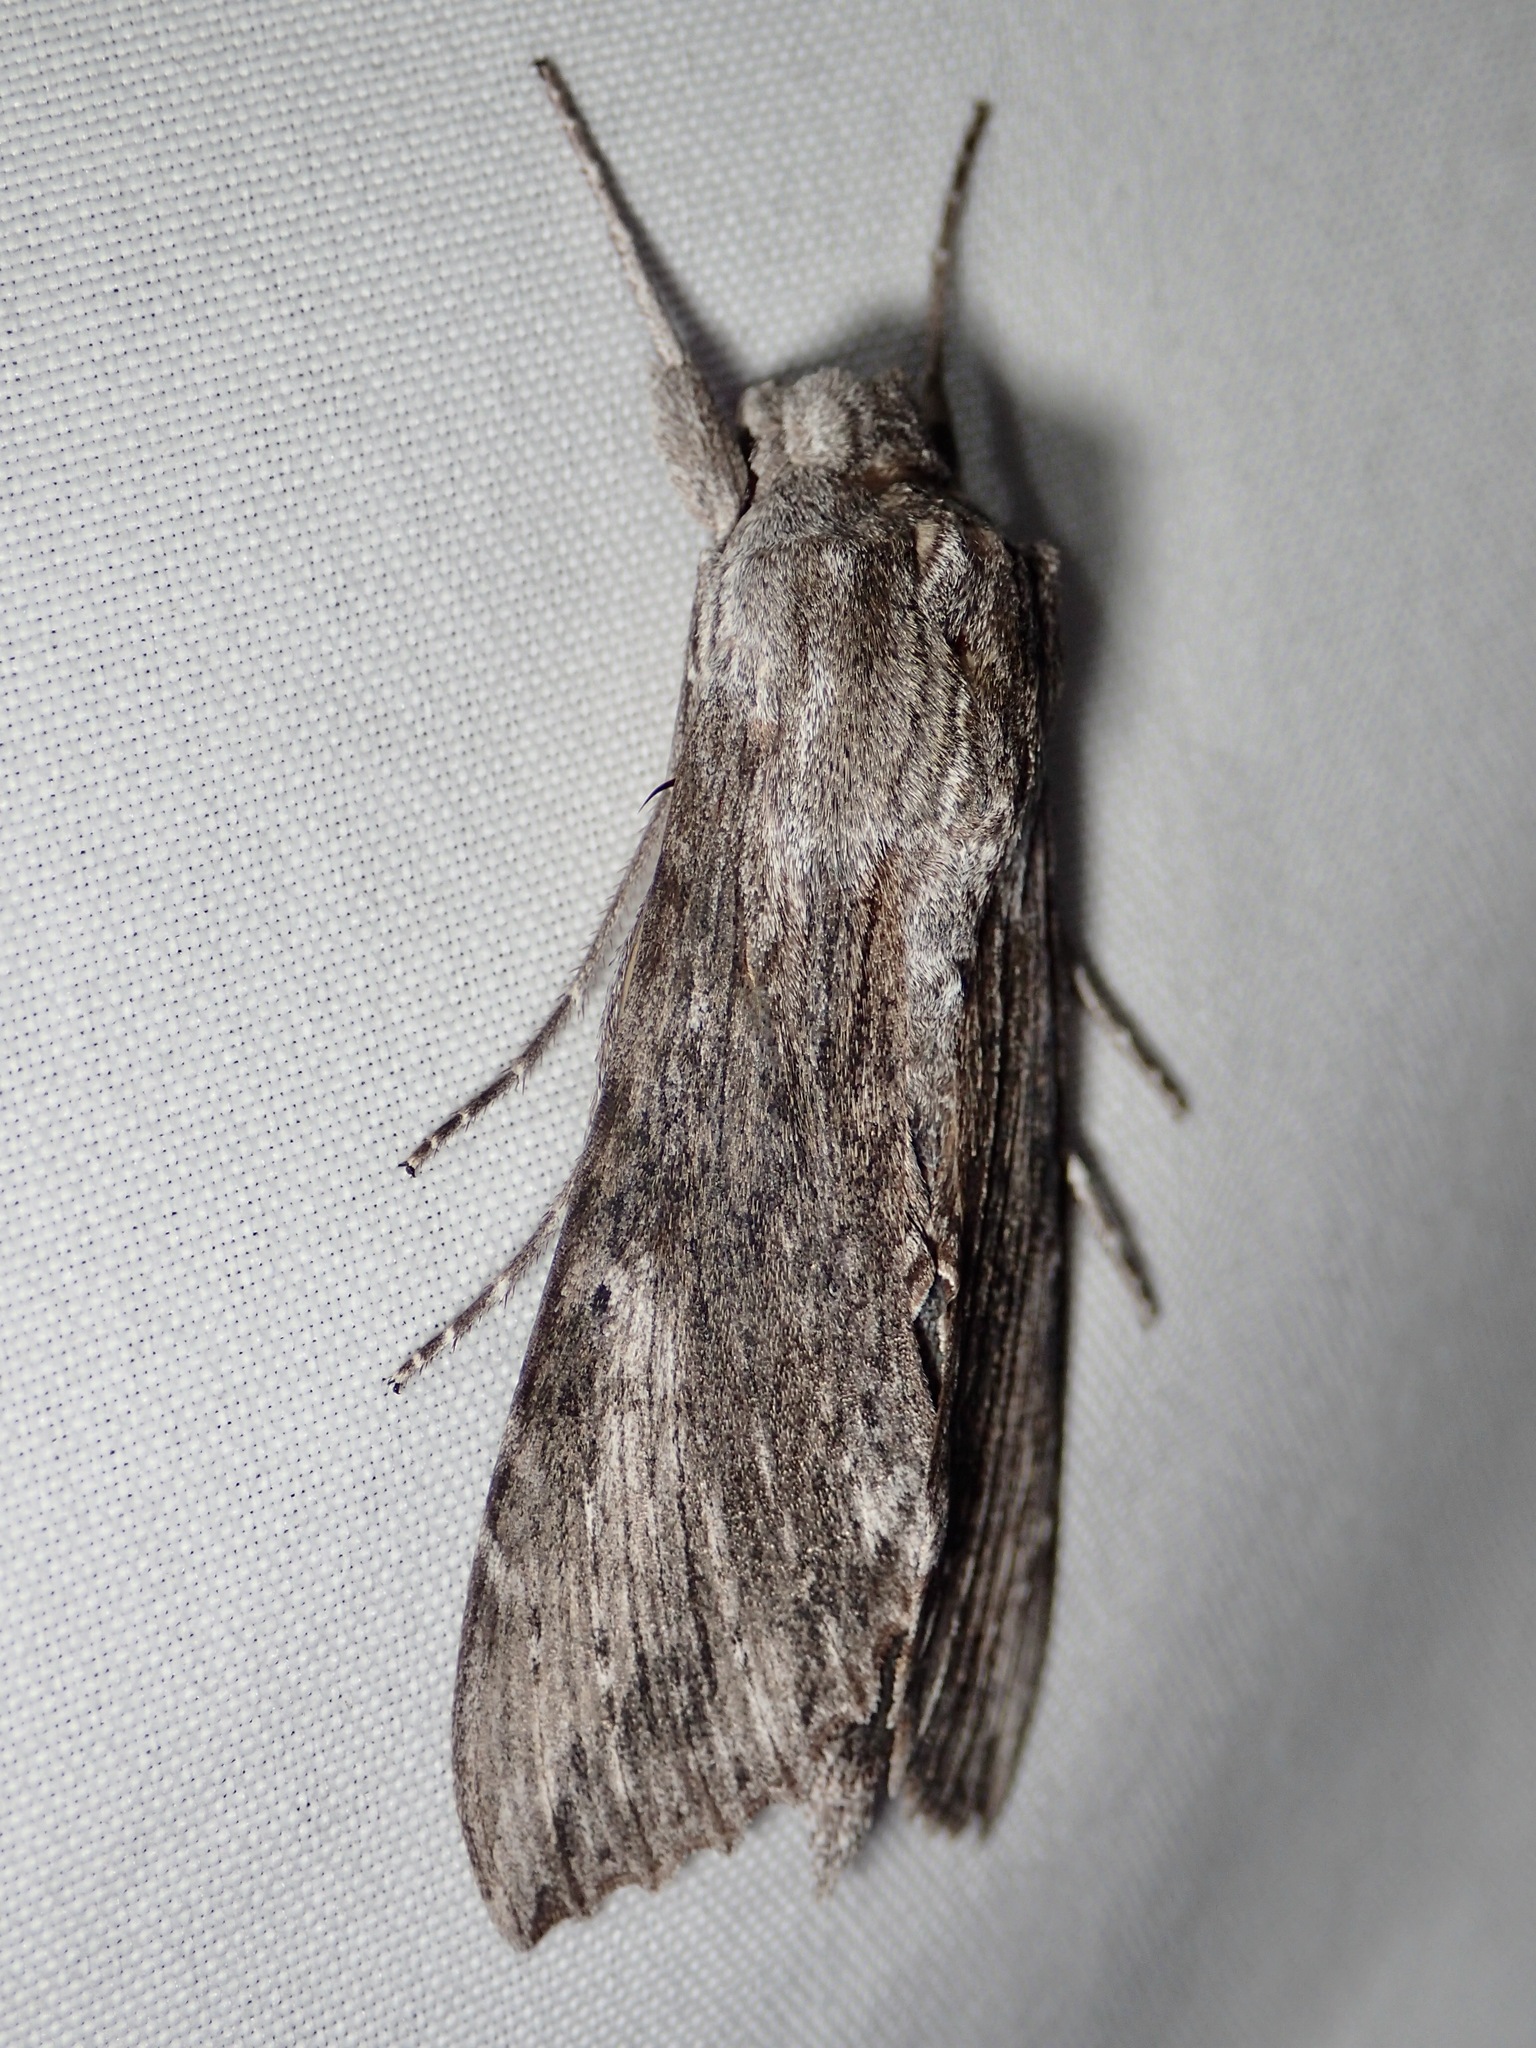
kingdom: Animalia
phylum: Arthropoda
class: Insecta
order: Lepidoptera
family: Sphingidae
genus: Erinnyis
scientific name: Erinnyis obscura
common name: Obscure sphinx
